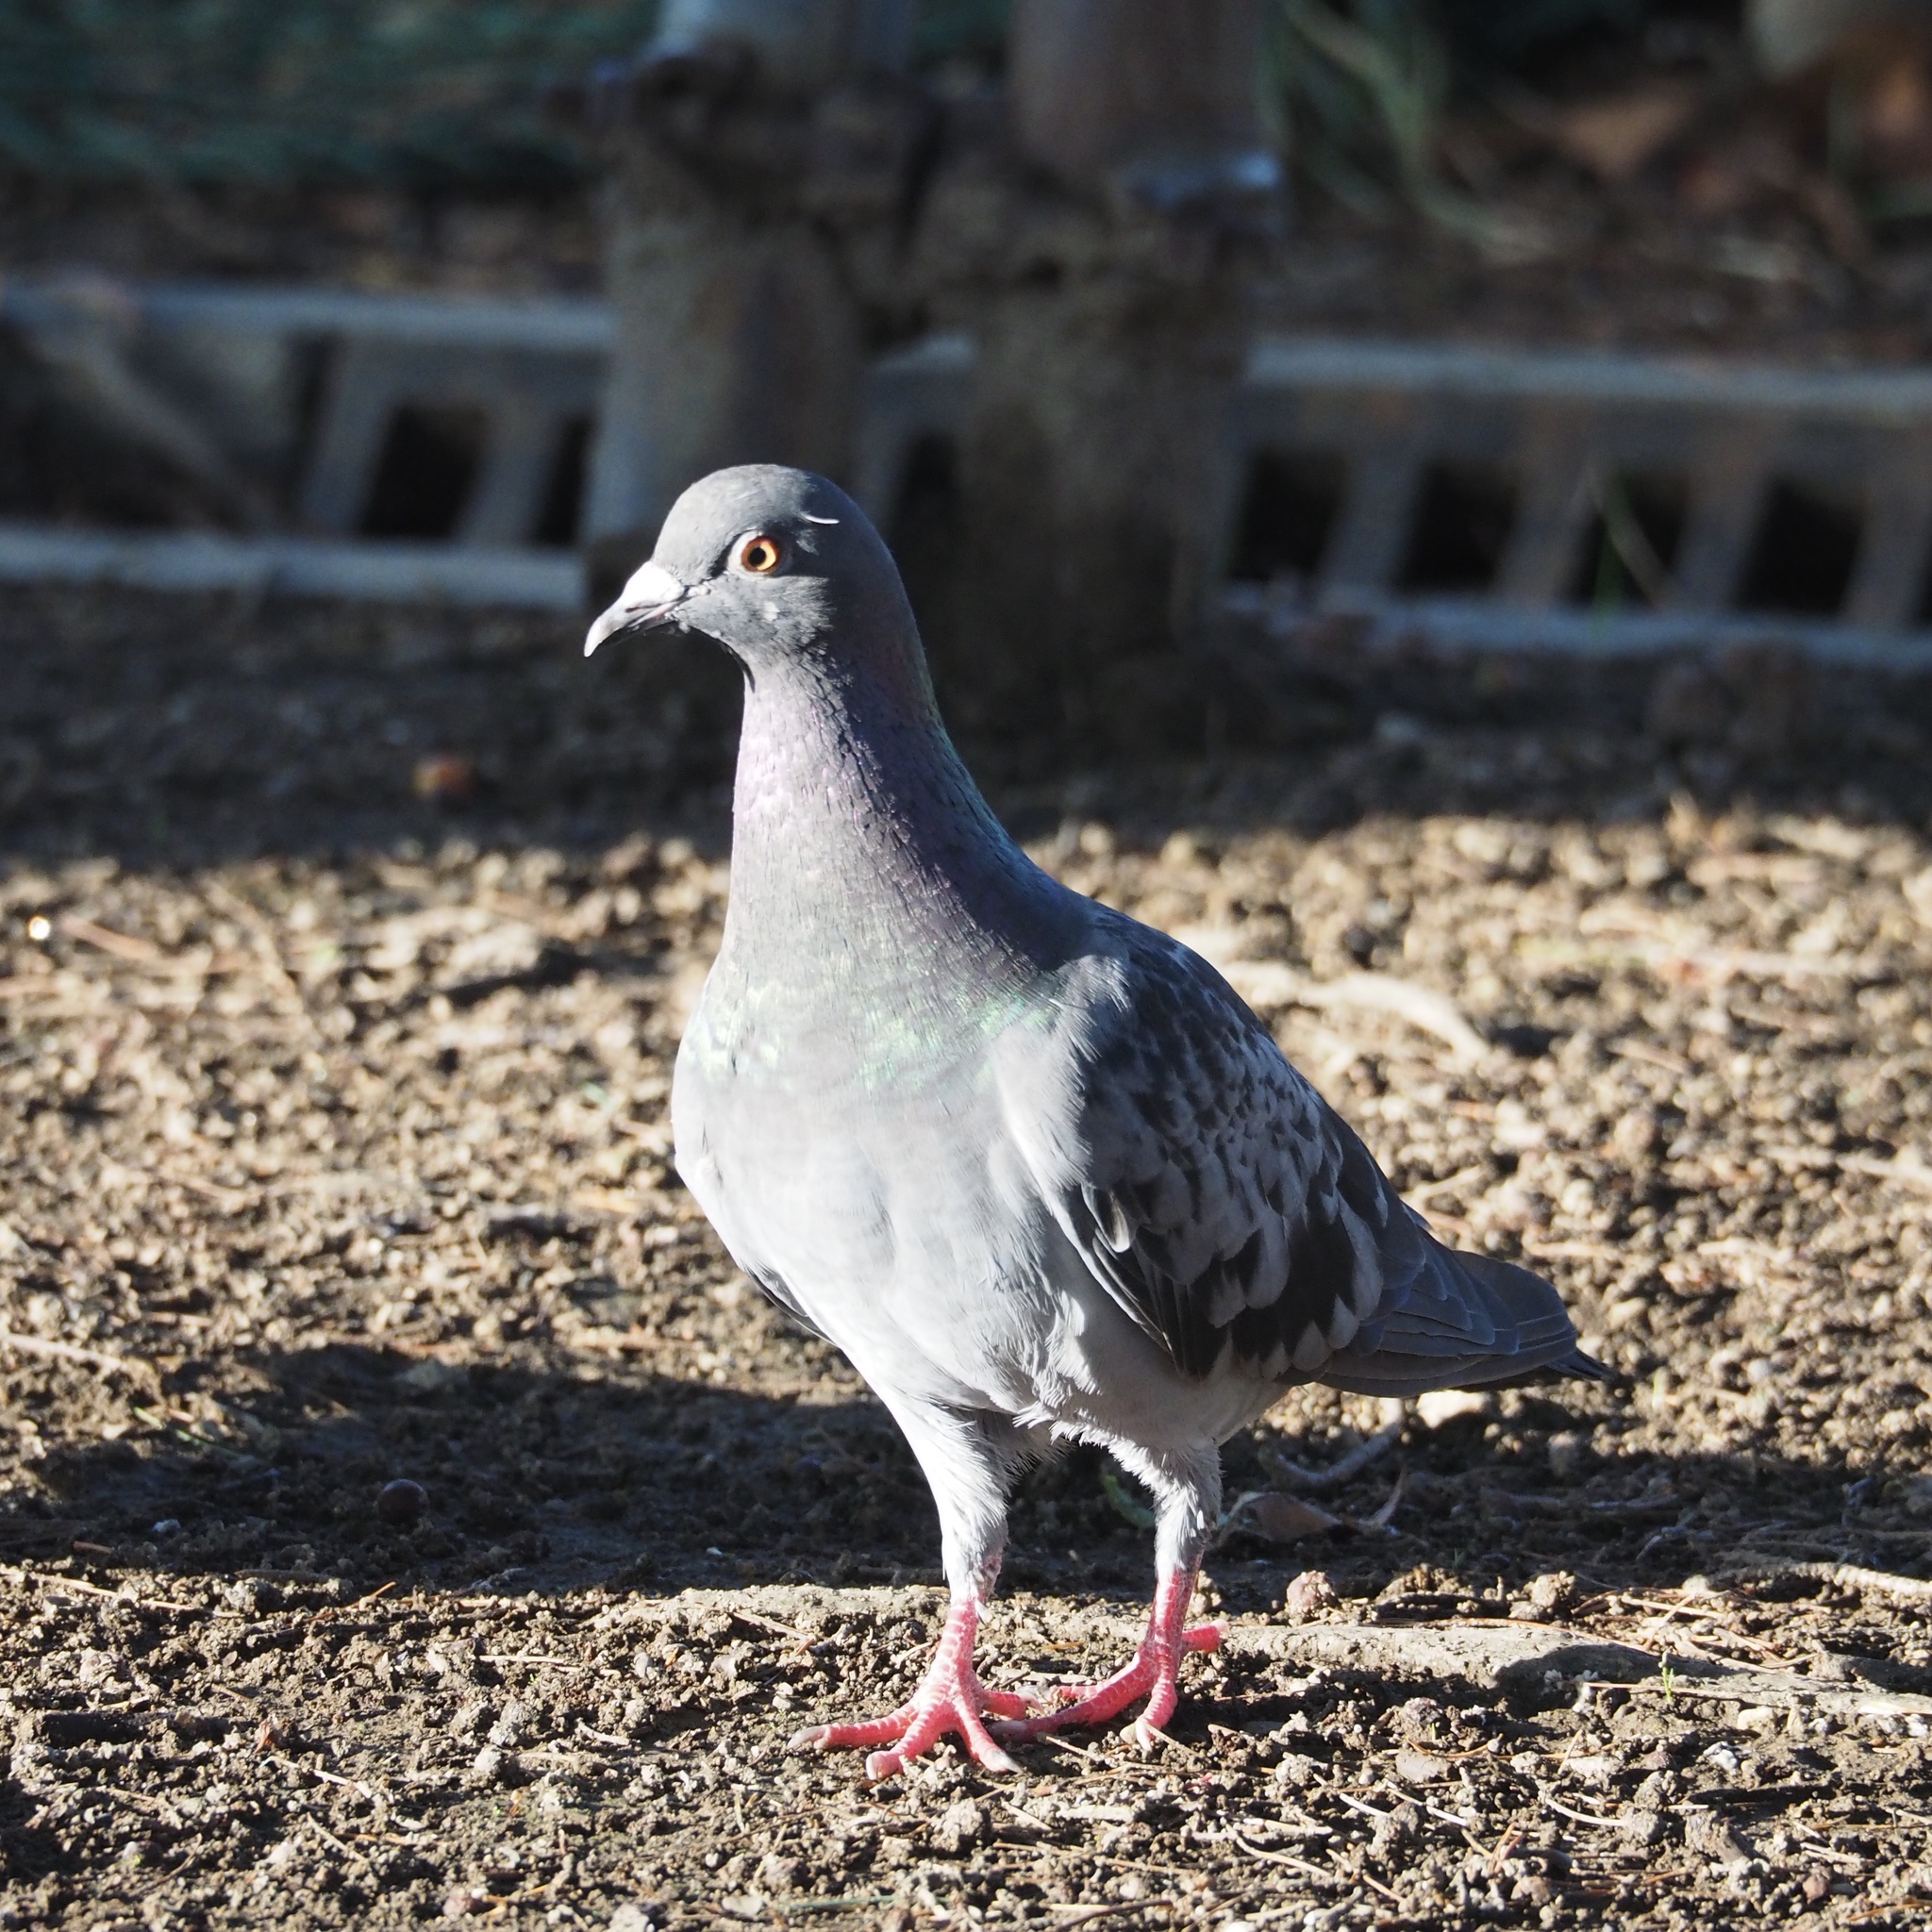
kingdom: Animalia
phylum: Chordata
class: Aves
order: Columbiformes
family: Columbidae
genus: Columba
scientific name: Columba livia
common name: Rock pigeon
